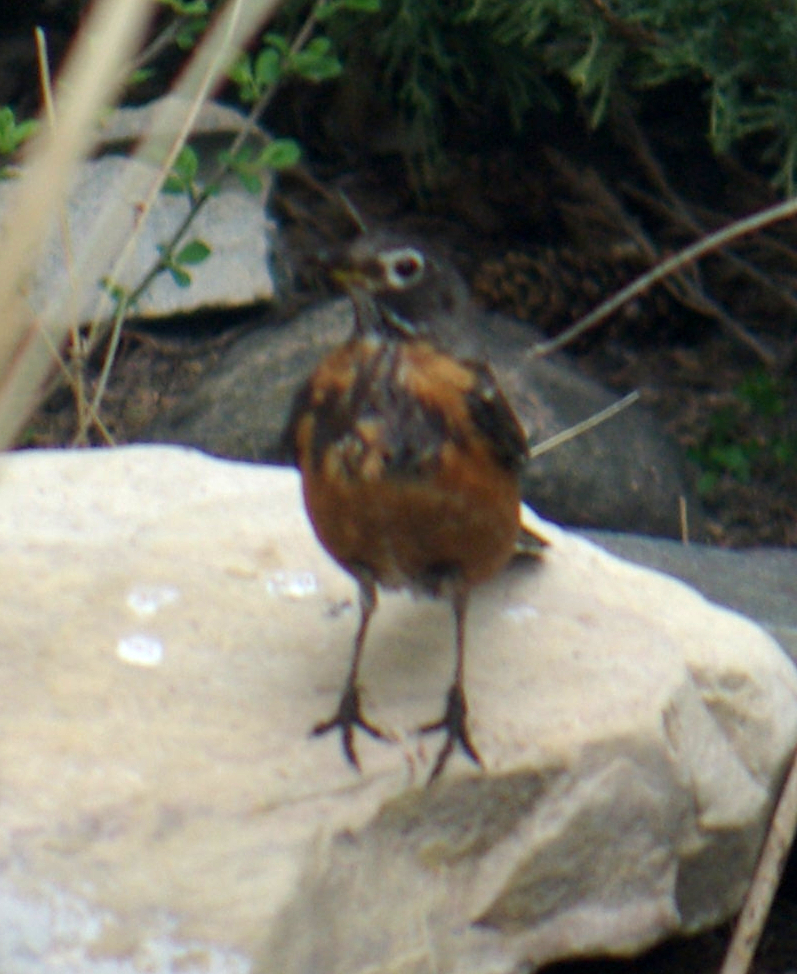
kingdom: Animalia
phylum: Chordata
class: Aves
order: Passeriformes
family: Turdidae
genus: Turdus
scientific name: Turdus migratorius
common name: American robin
